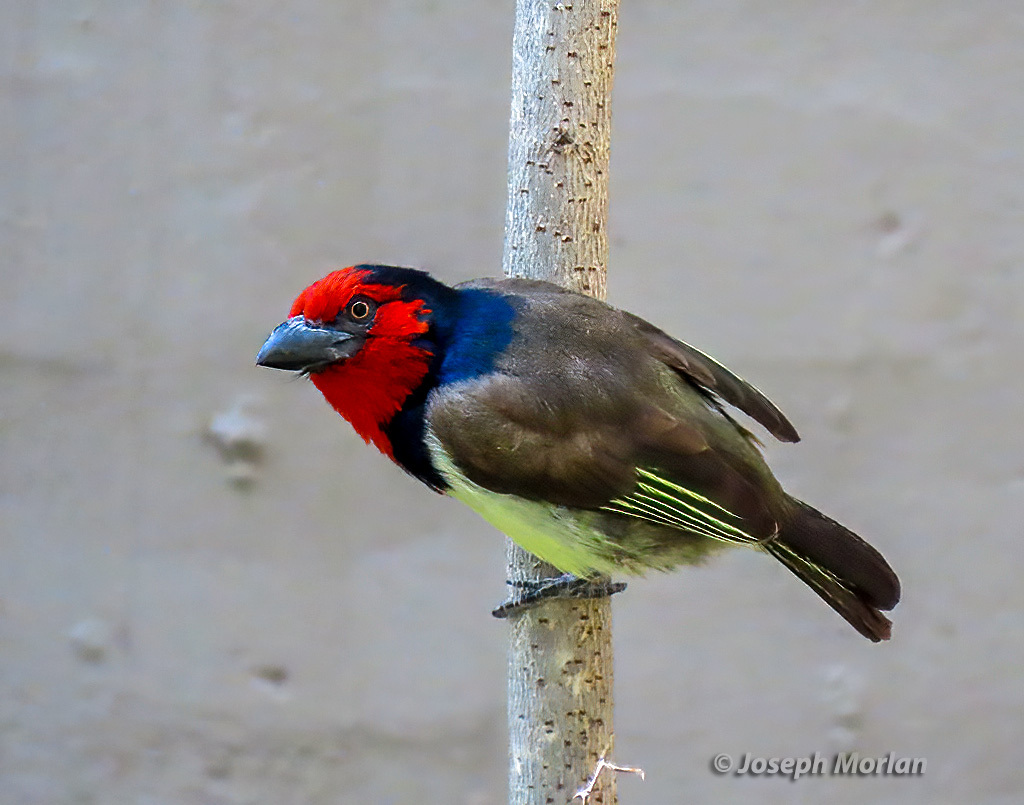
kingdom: Animalia
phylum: Chordata
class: Aves
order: Piciformes
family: Lybiidae
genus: Lybius
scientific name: Lybius torquatus
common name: Black-collared barbet
